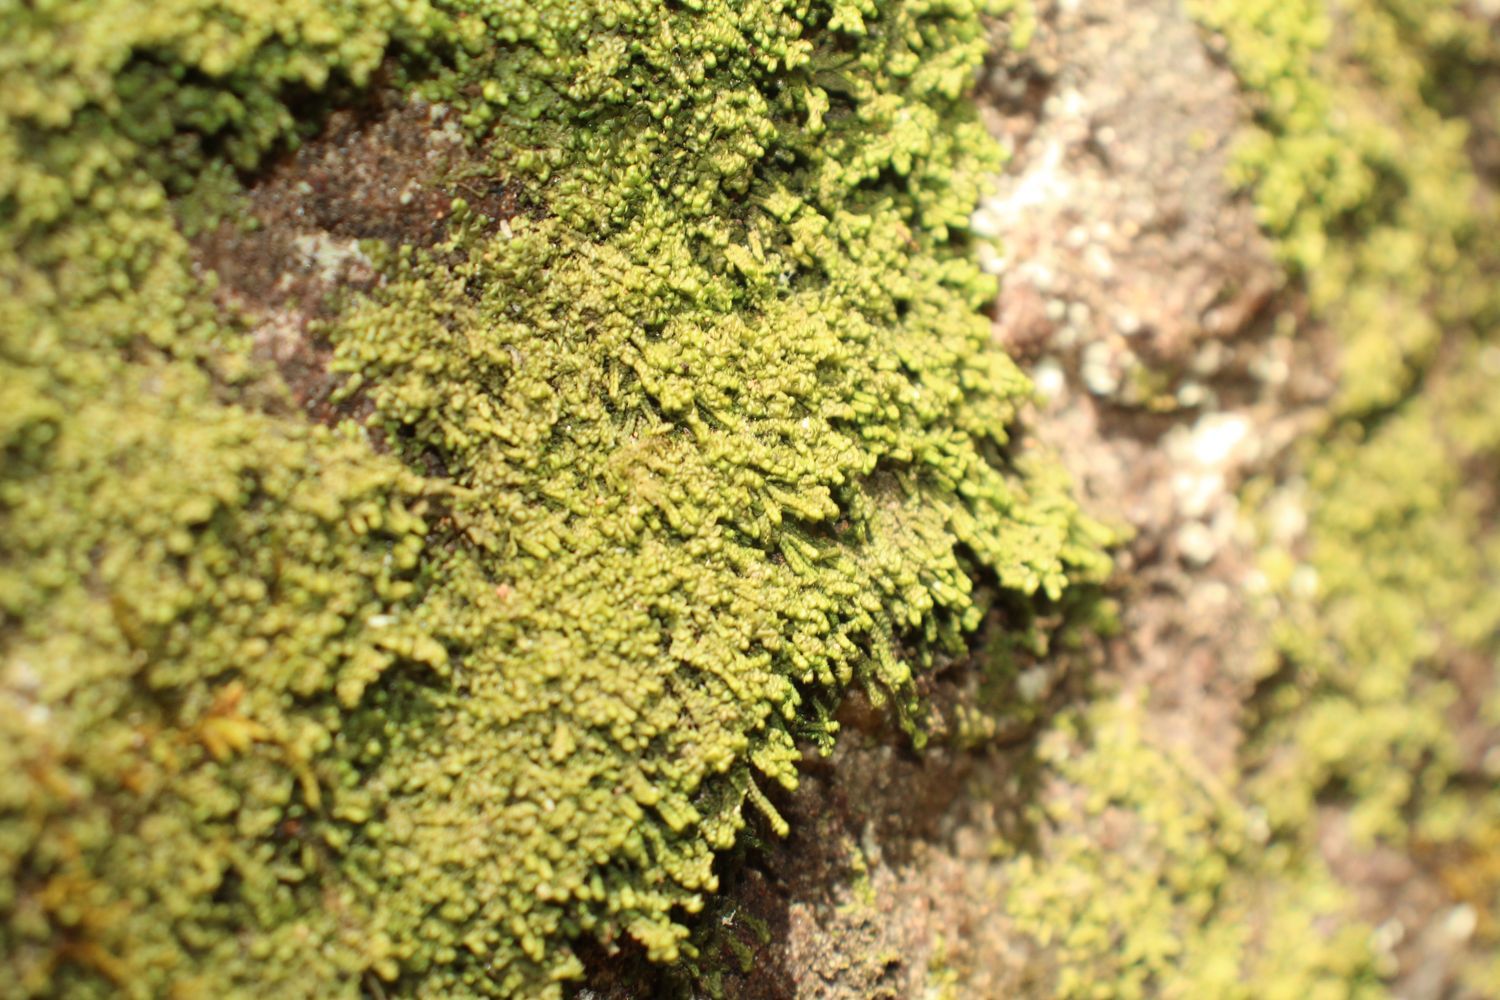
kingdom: Plantae
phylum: Marchantiophyta
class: Jungermanniopsida
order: Porellales
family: Radulaceae
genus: Radula
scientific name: Radula buccinifera
